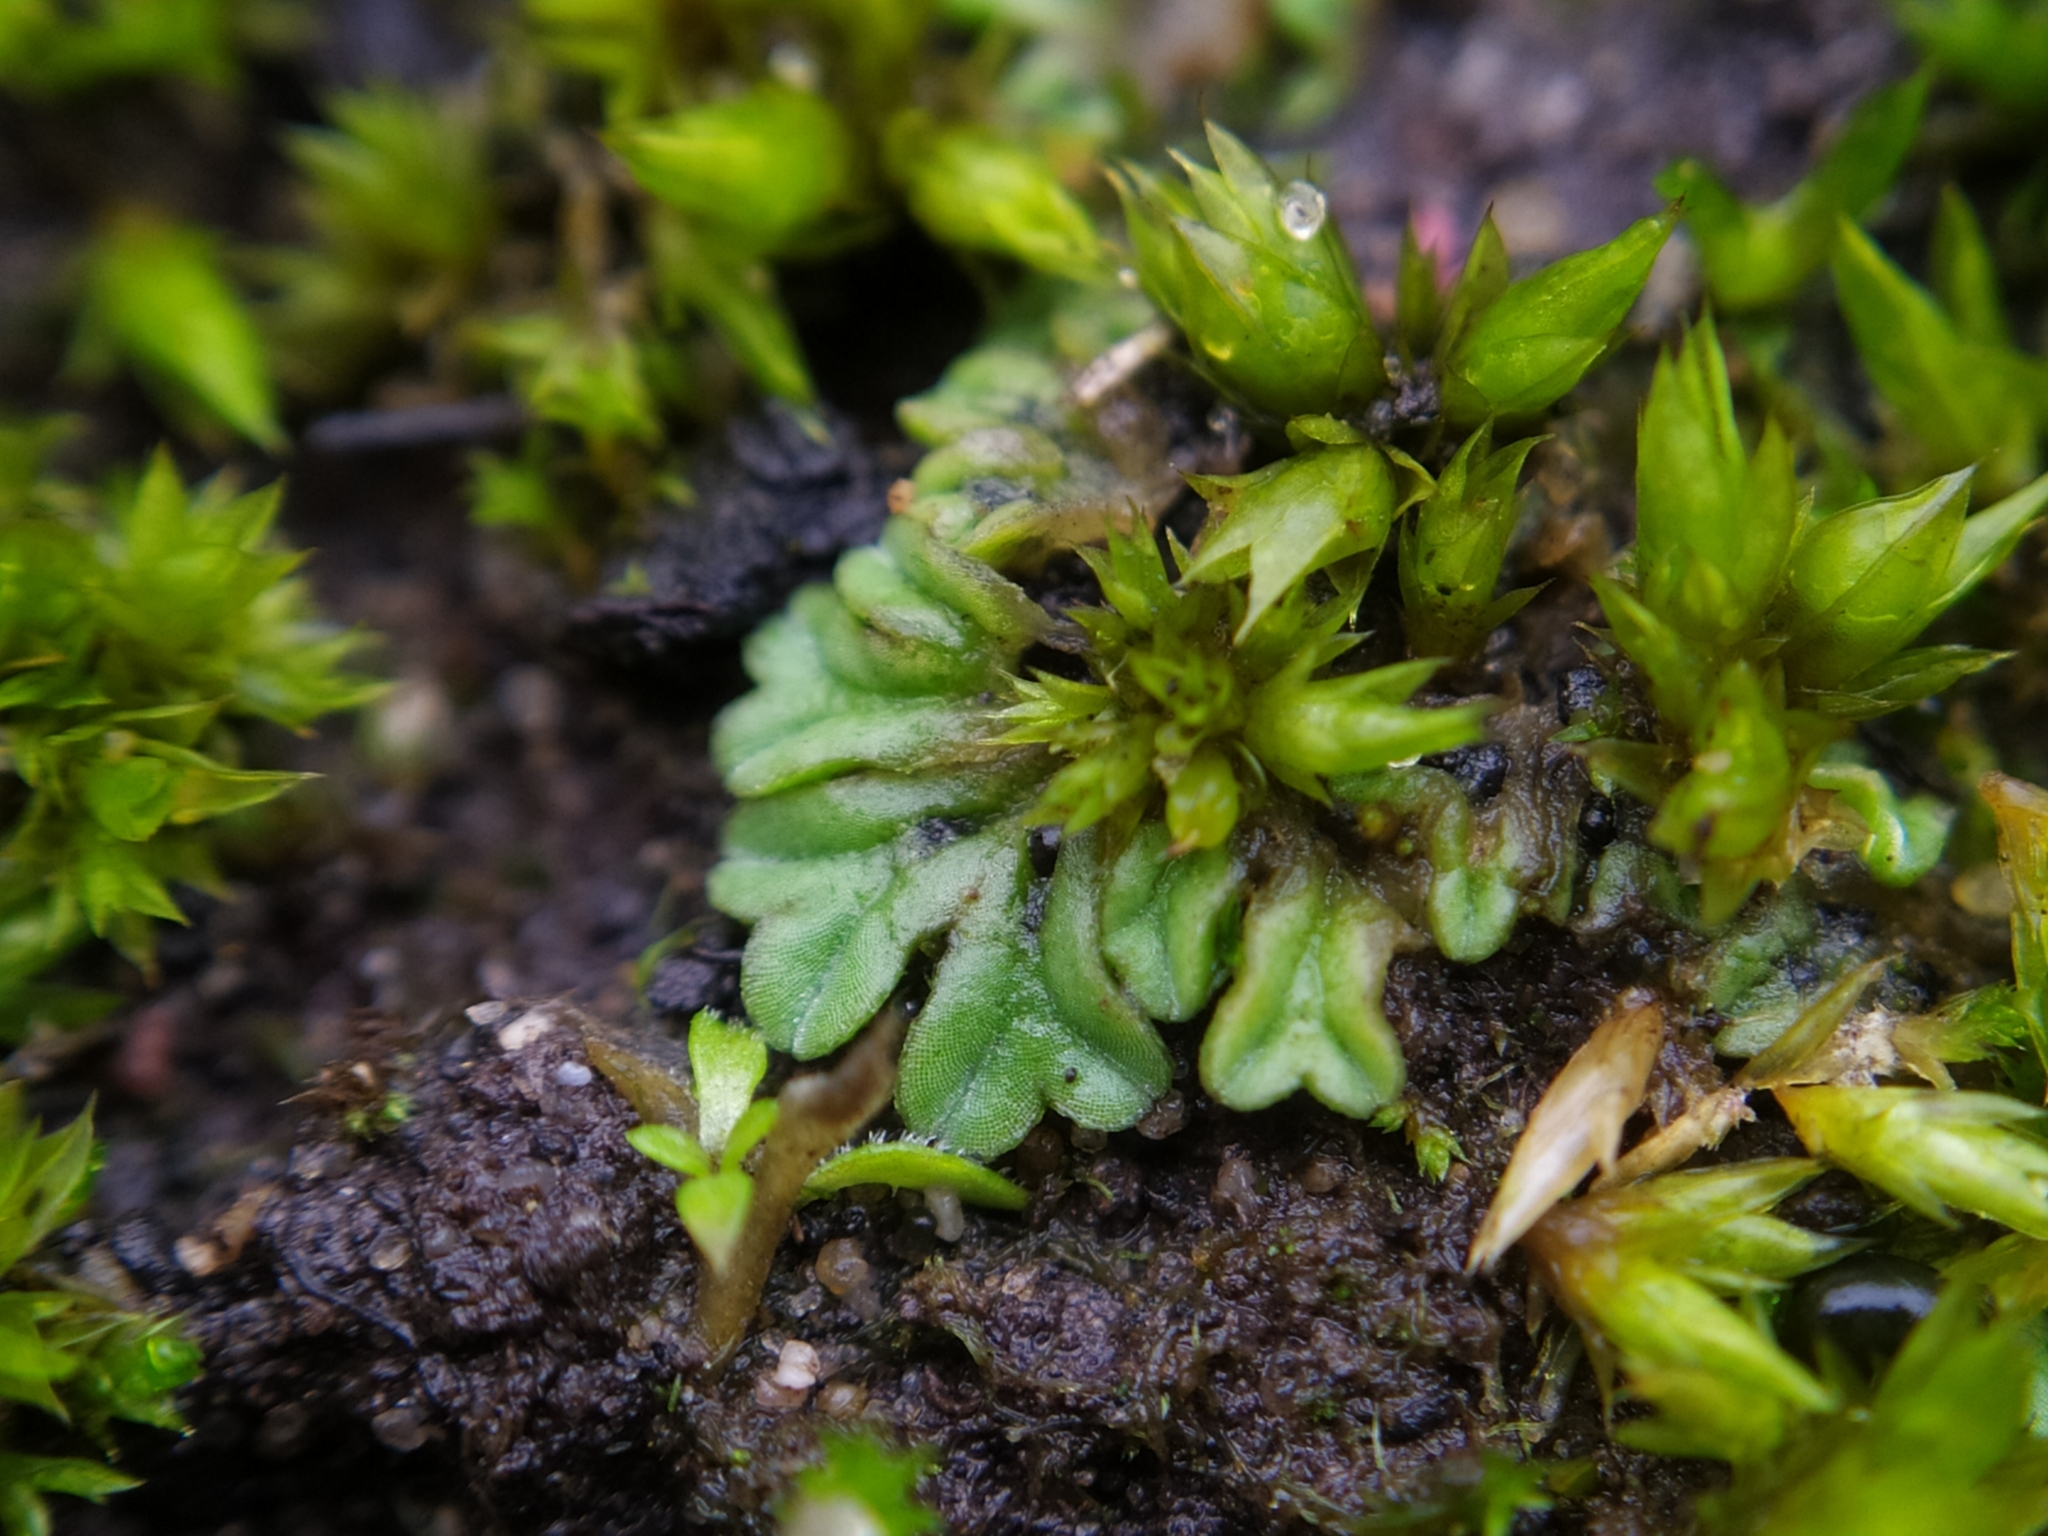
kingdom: Plantae
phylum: Marchantiophyta
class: Marchantiopsida
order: Marchantiales
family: Ricciaceae
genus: Riccia
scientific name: Riccia sorocarpa
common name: Common crystalwort
